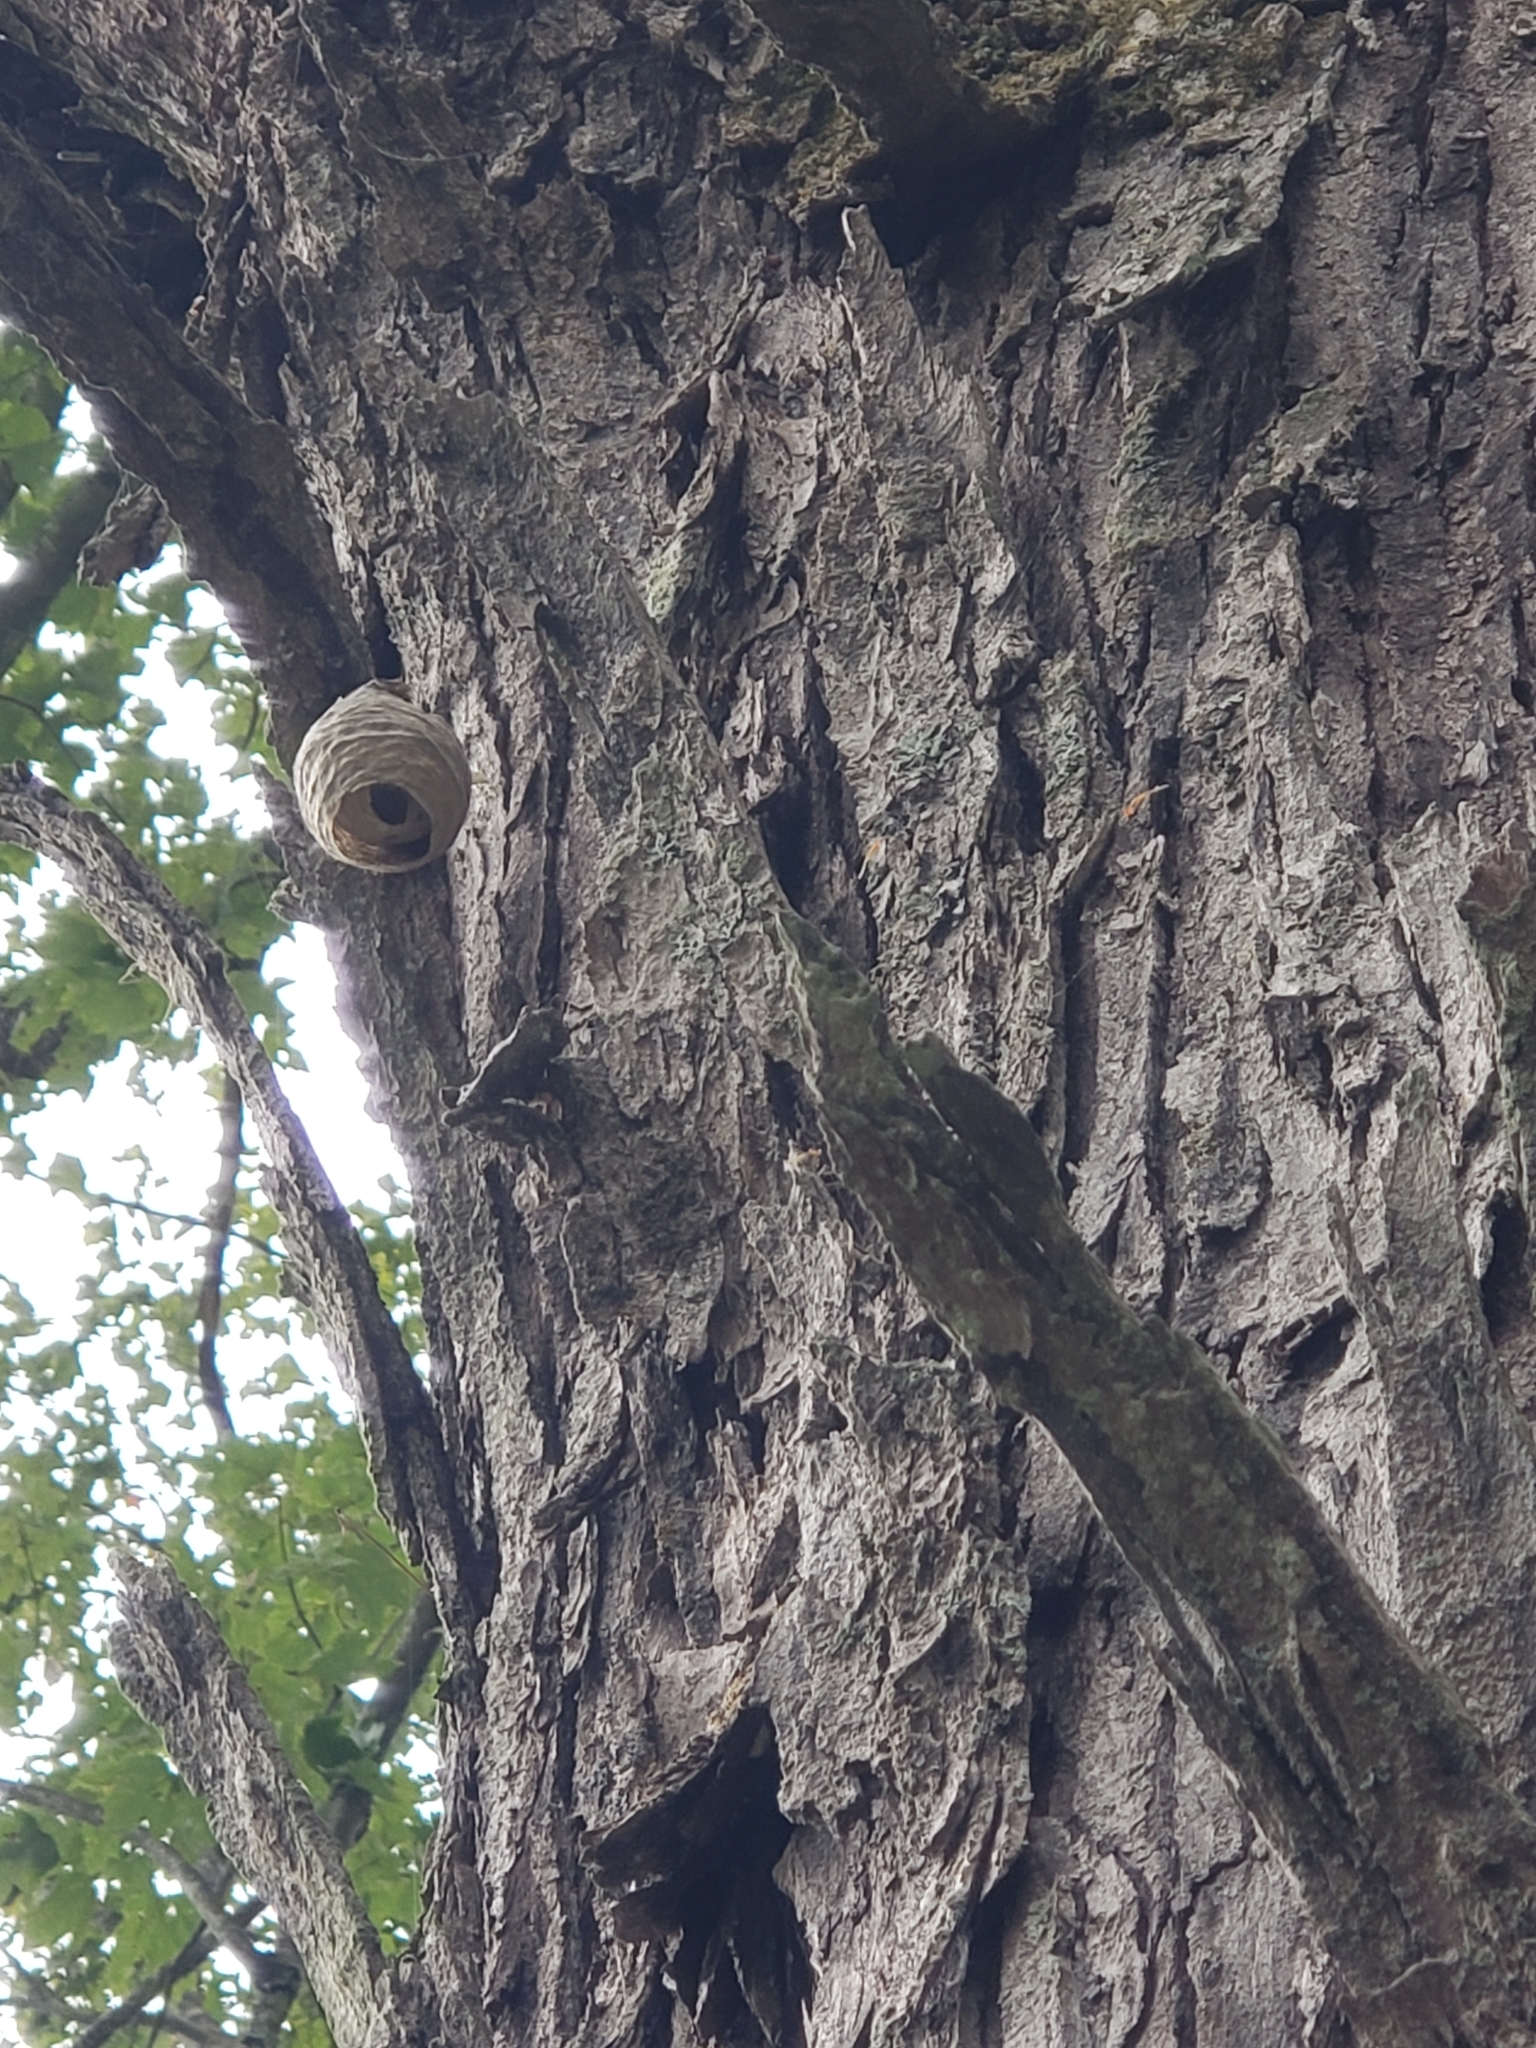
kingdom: Animalia
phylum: Arthropoda
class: Insecta
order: Hymenoptera
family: Vespidae
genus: Dolichovespula
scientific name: Dolichovespula
